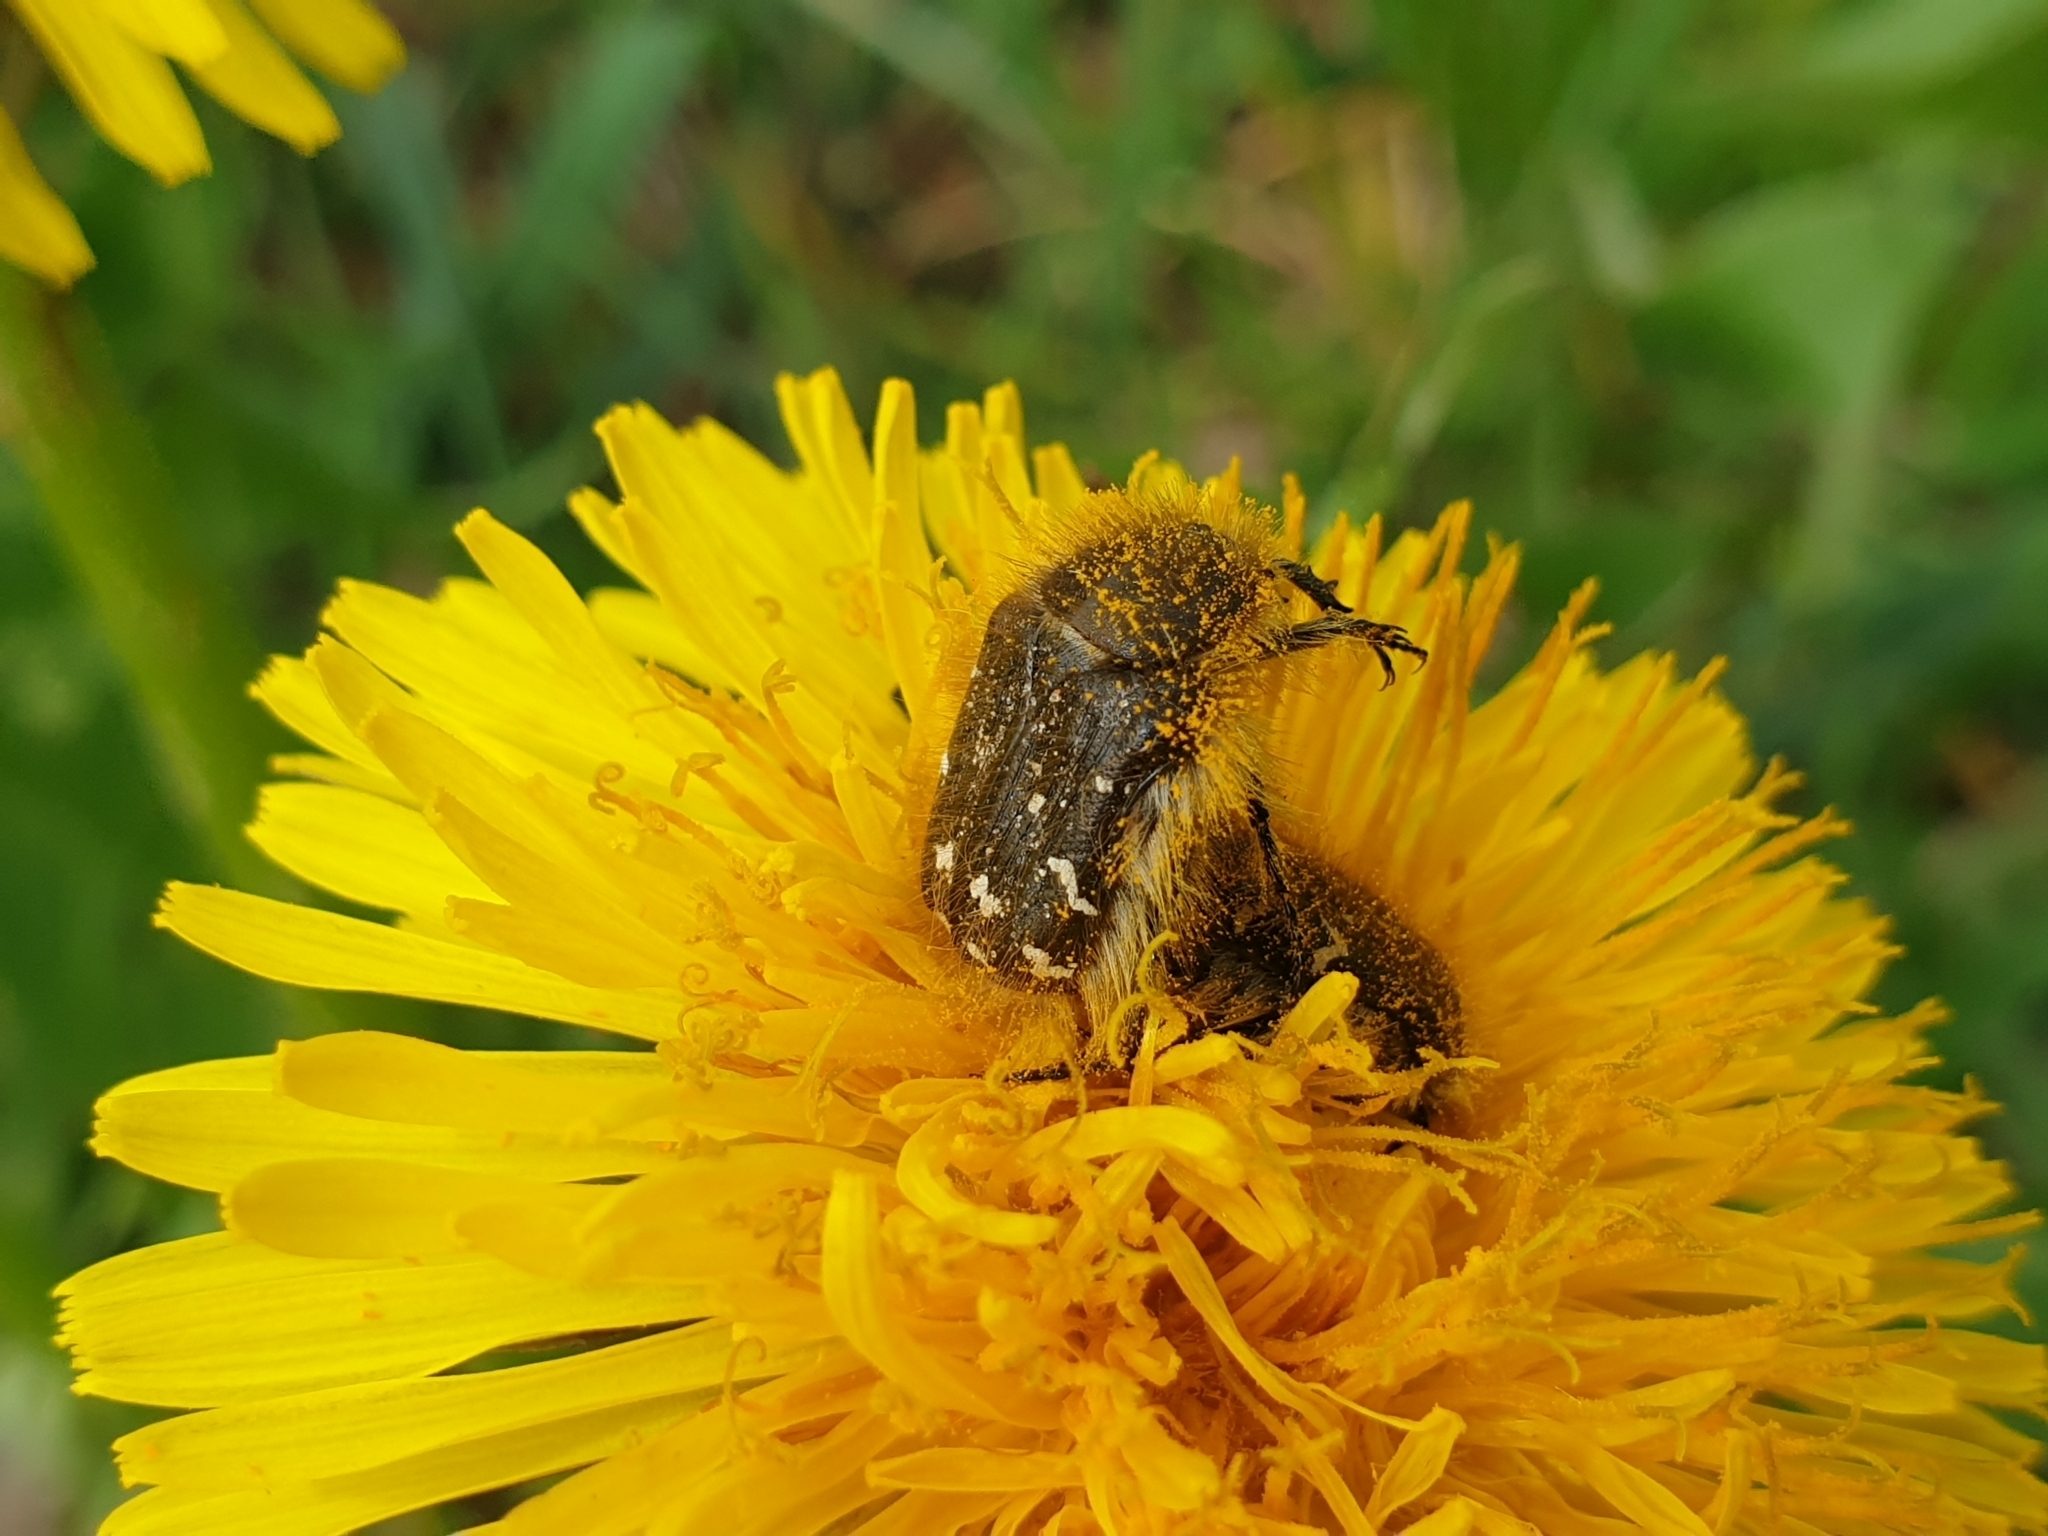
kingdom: Animalia
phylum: Arthropoda
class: Insecta
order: Coleoptera
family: Scarabaeidae
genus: Tropinota
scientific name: Tropinota hirta
